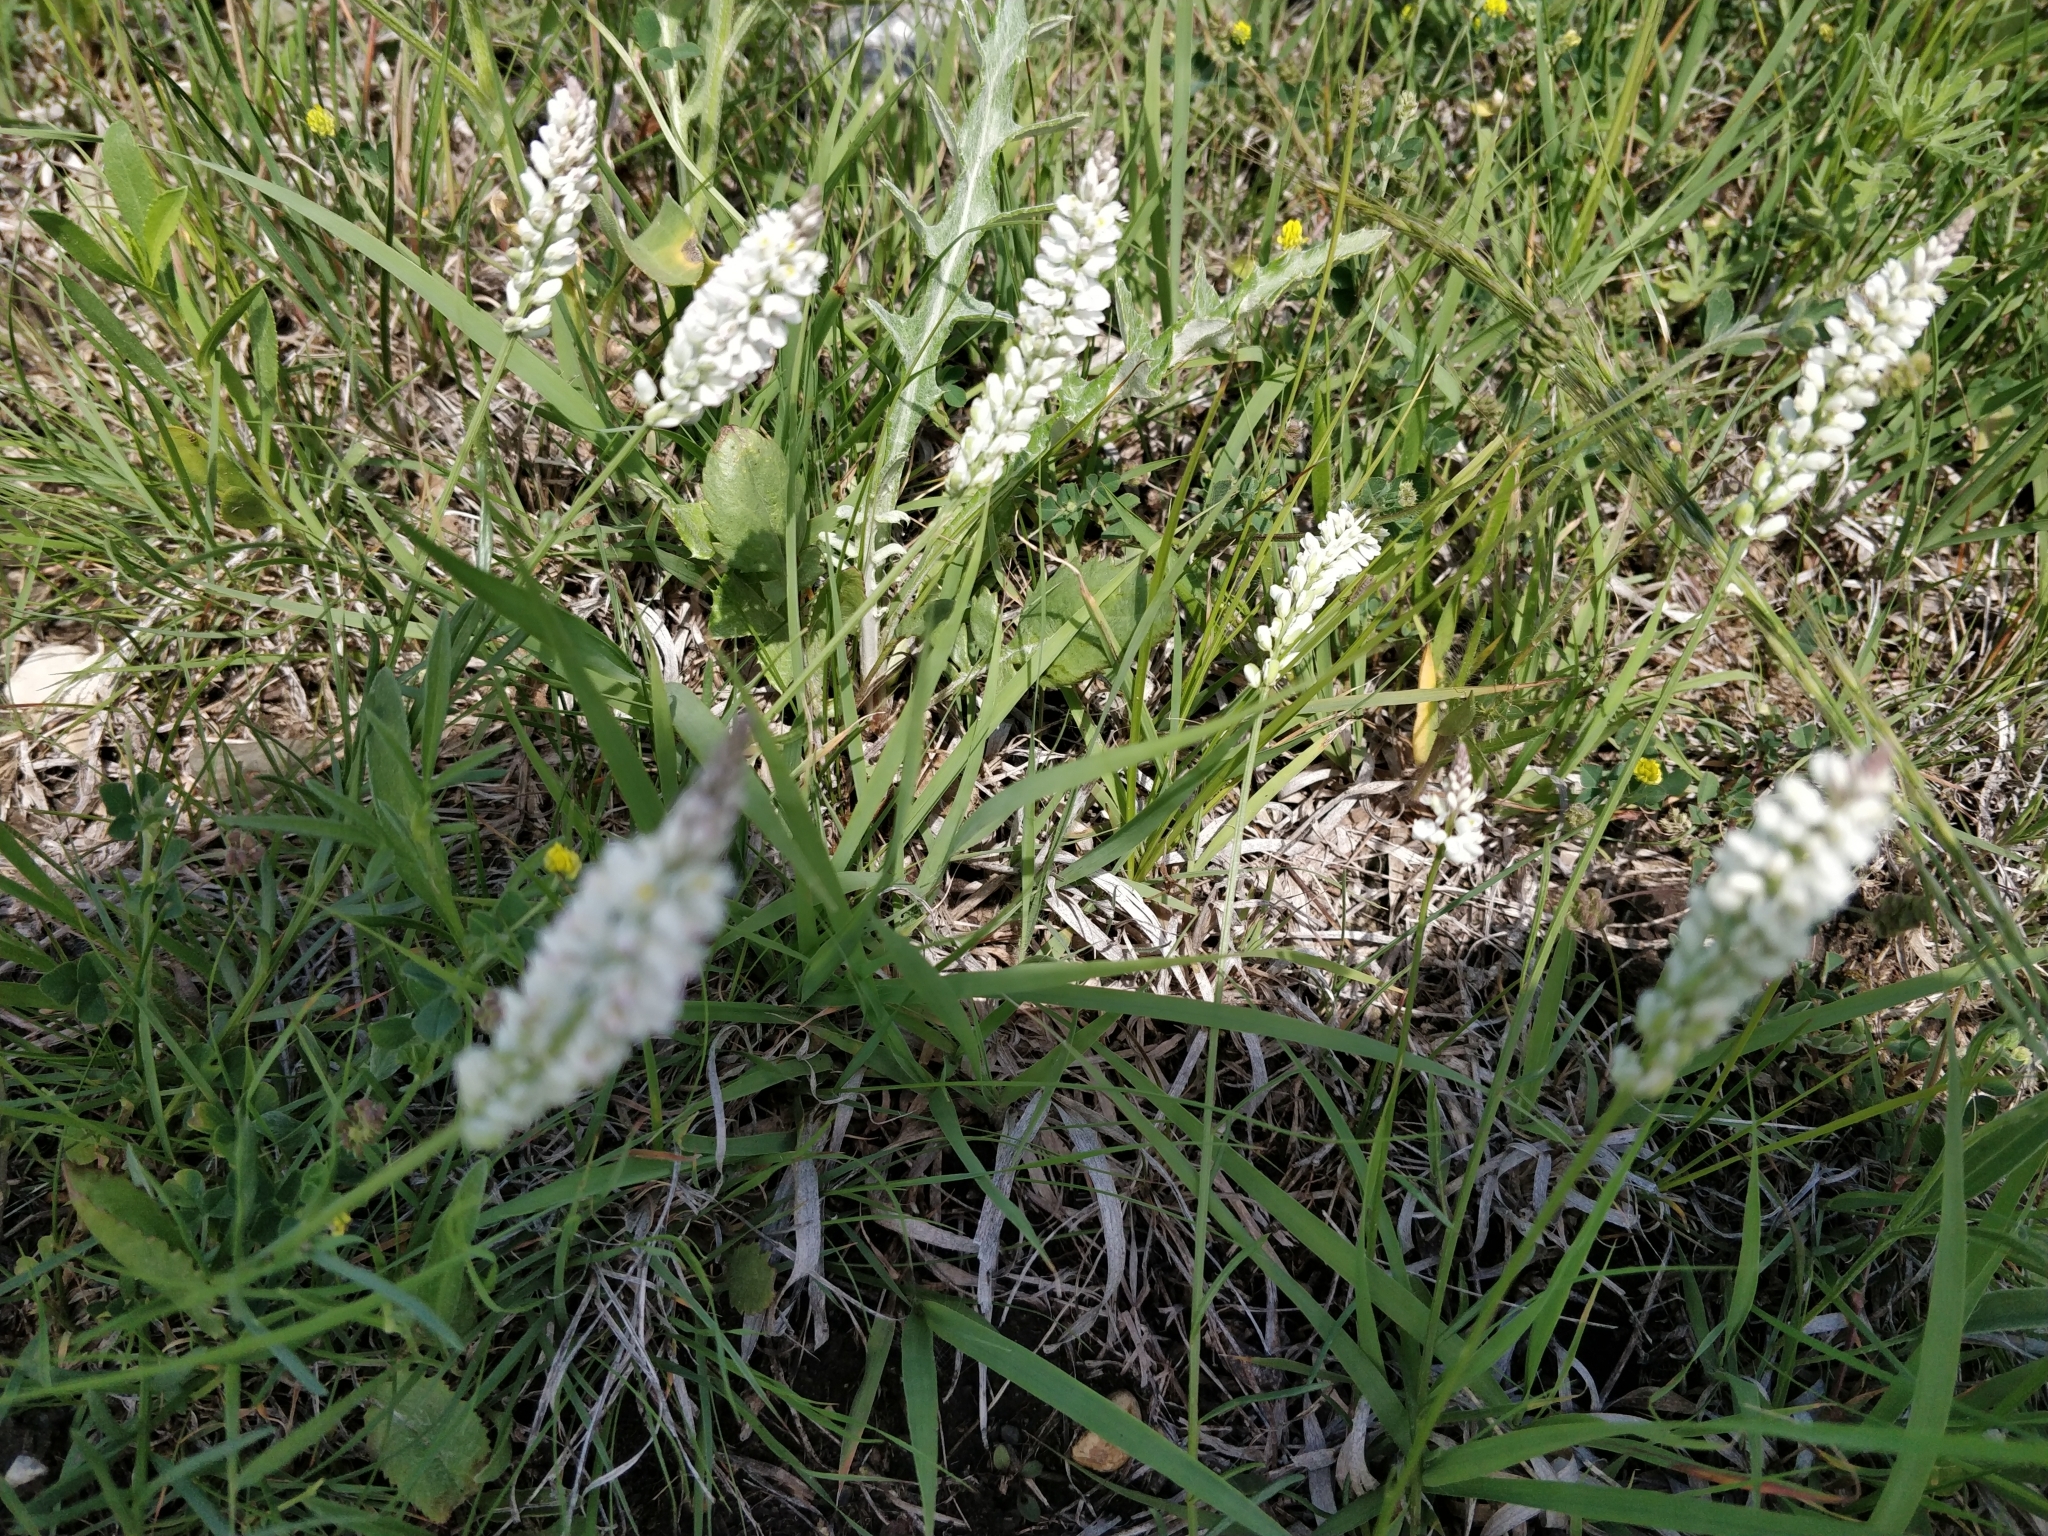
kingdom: Plantae
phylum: Tracheophyta
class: Magnoliopsida
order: Fabales
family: Polygalaceae
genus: Polygala
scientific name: Polygala alba
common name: White milkwort
